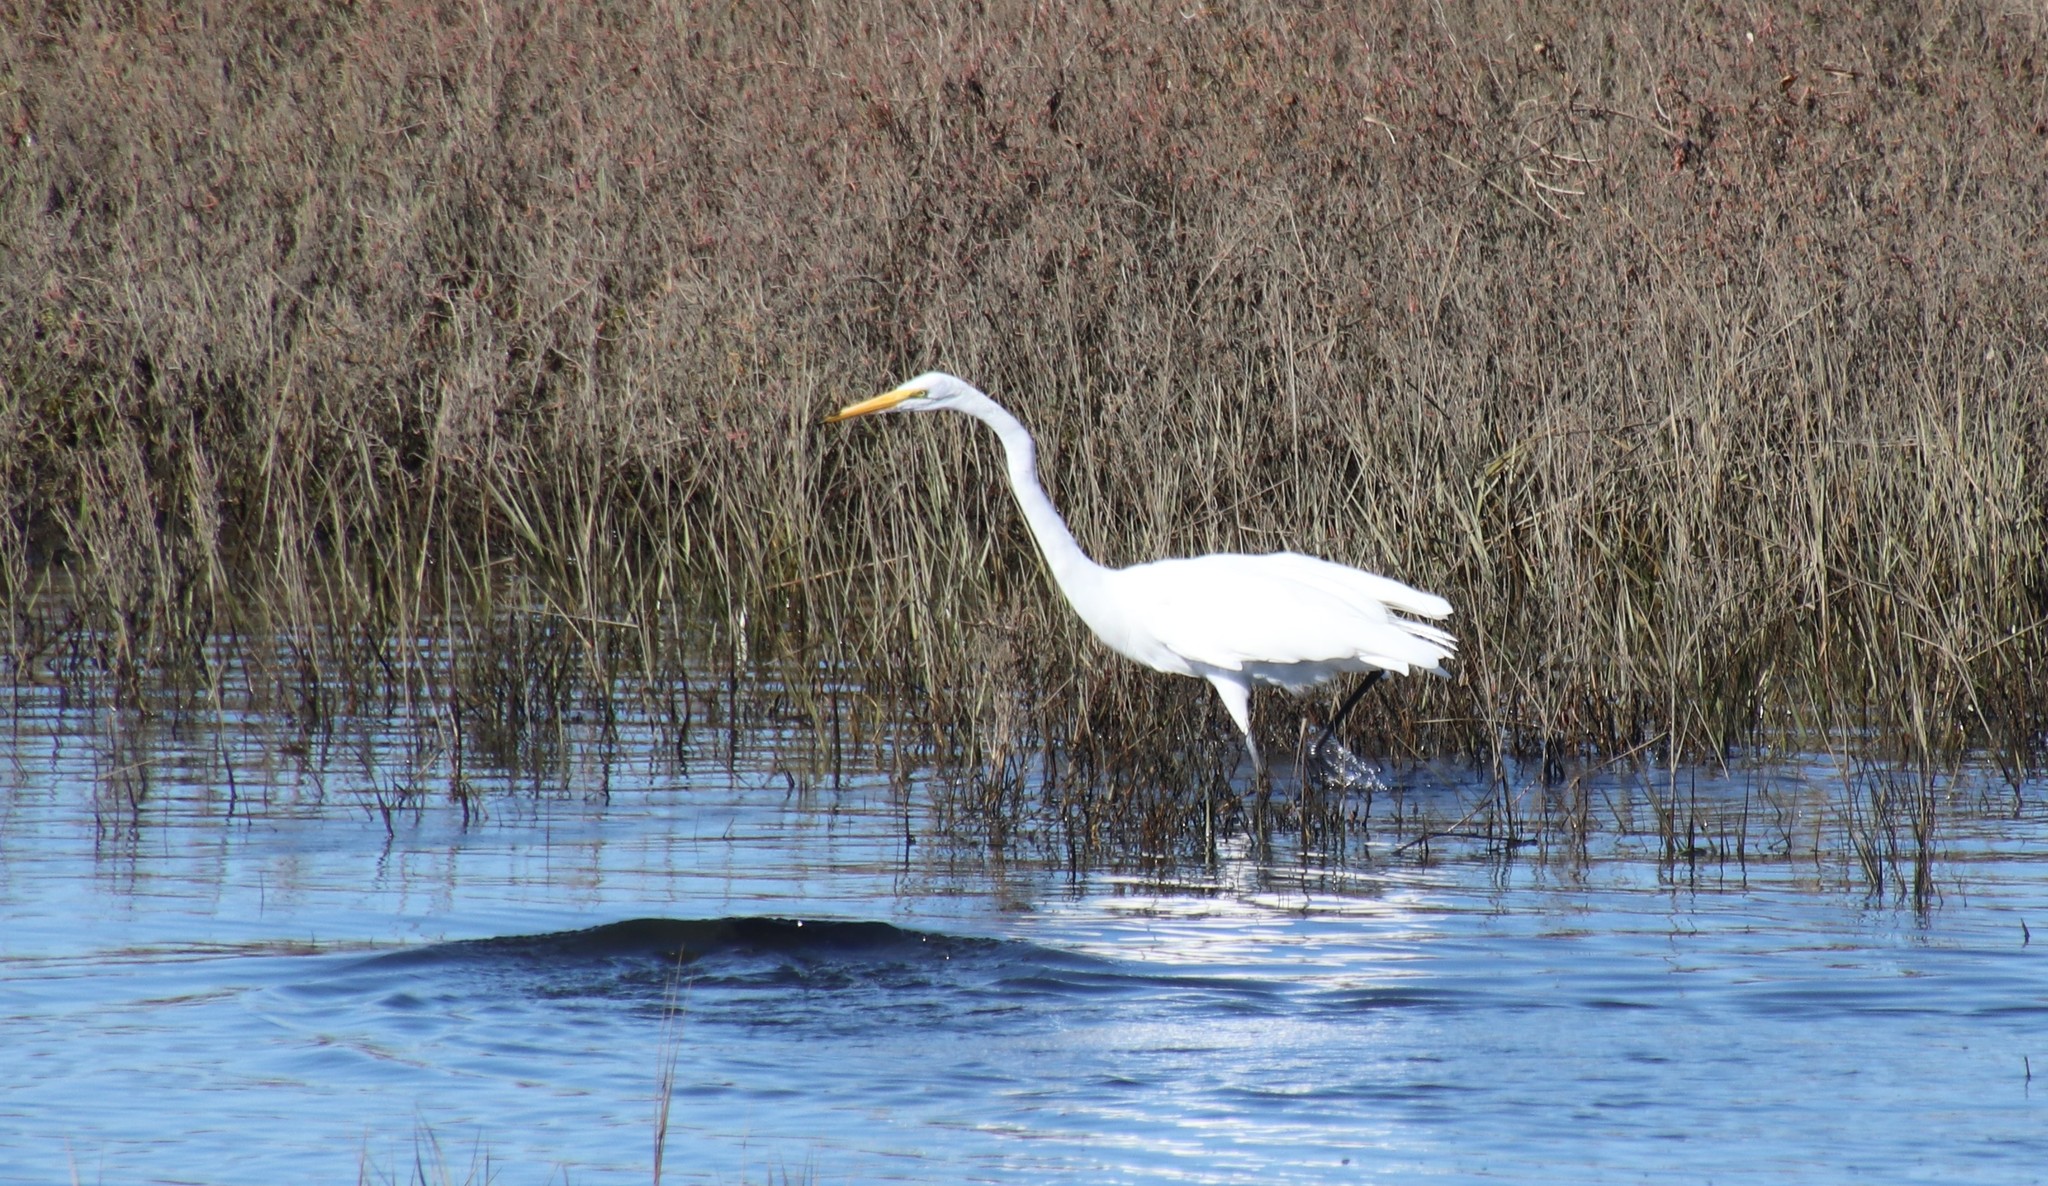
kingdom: Animalia
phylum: Chordata
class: Aves
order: Pelecaniformes
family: Ardeidae
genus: Ardea
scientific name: Ardea alba
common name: Great egret
